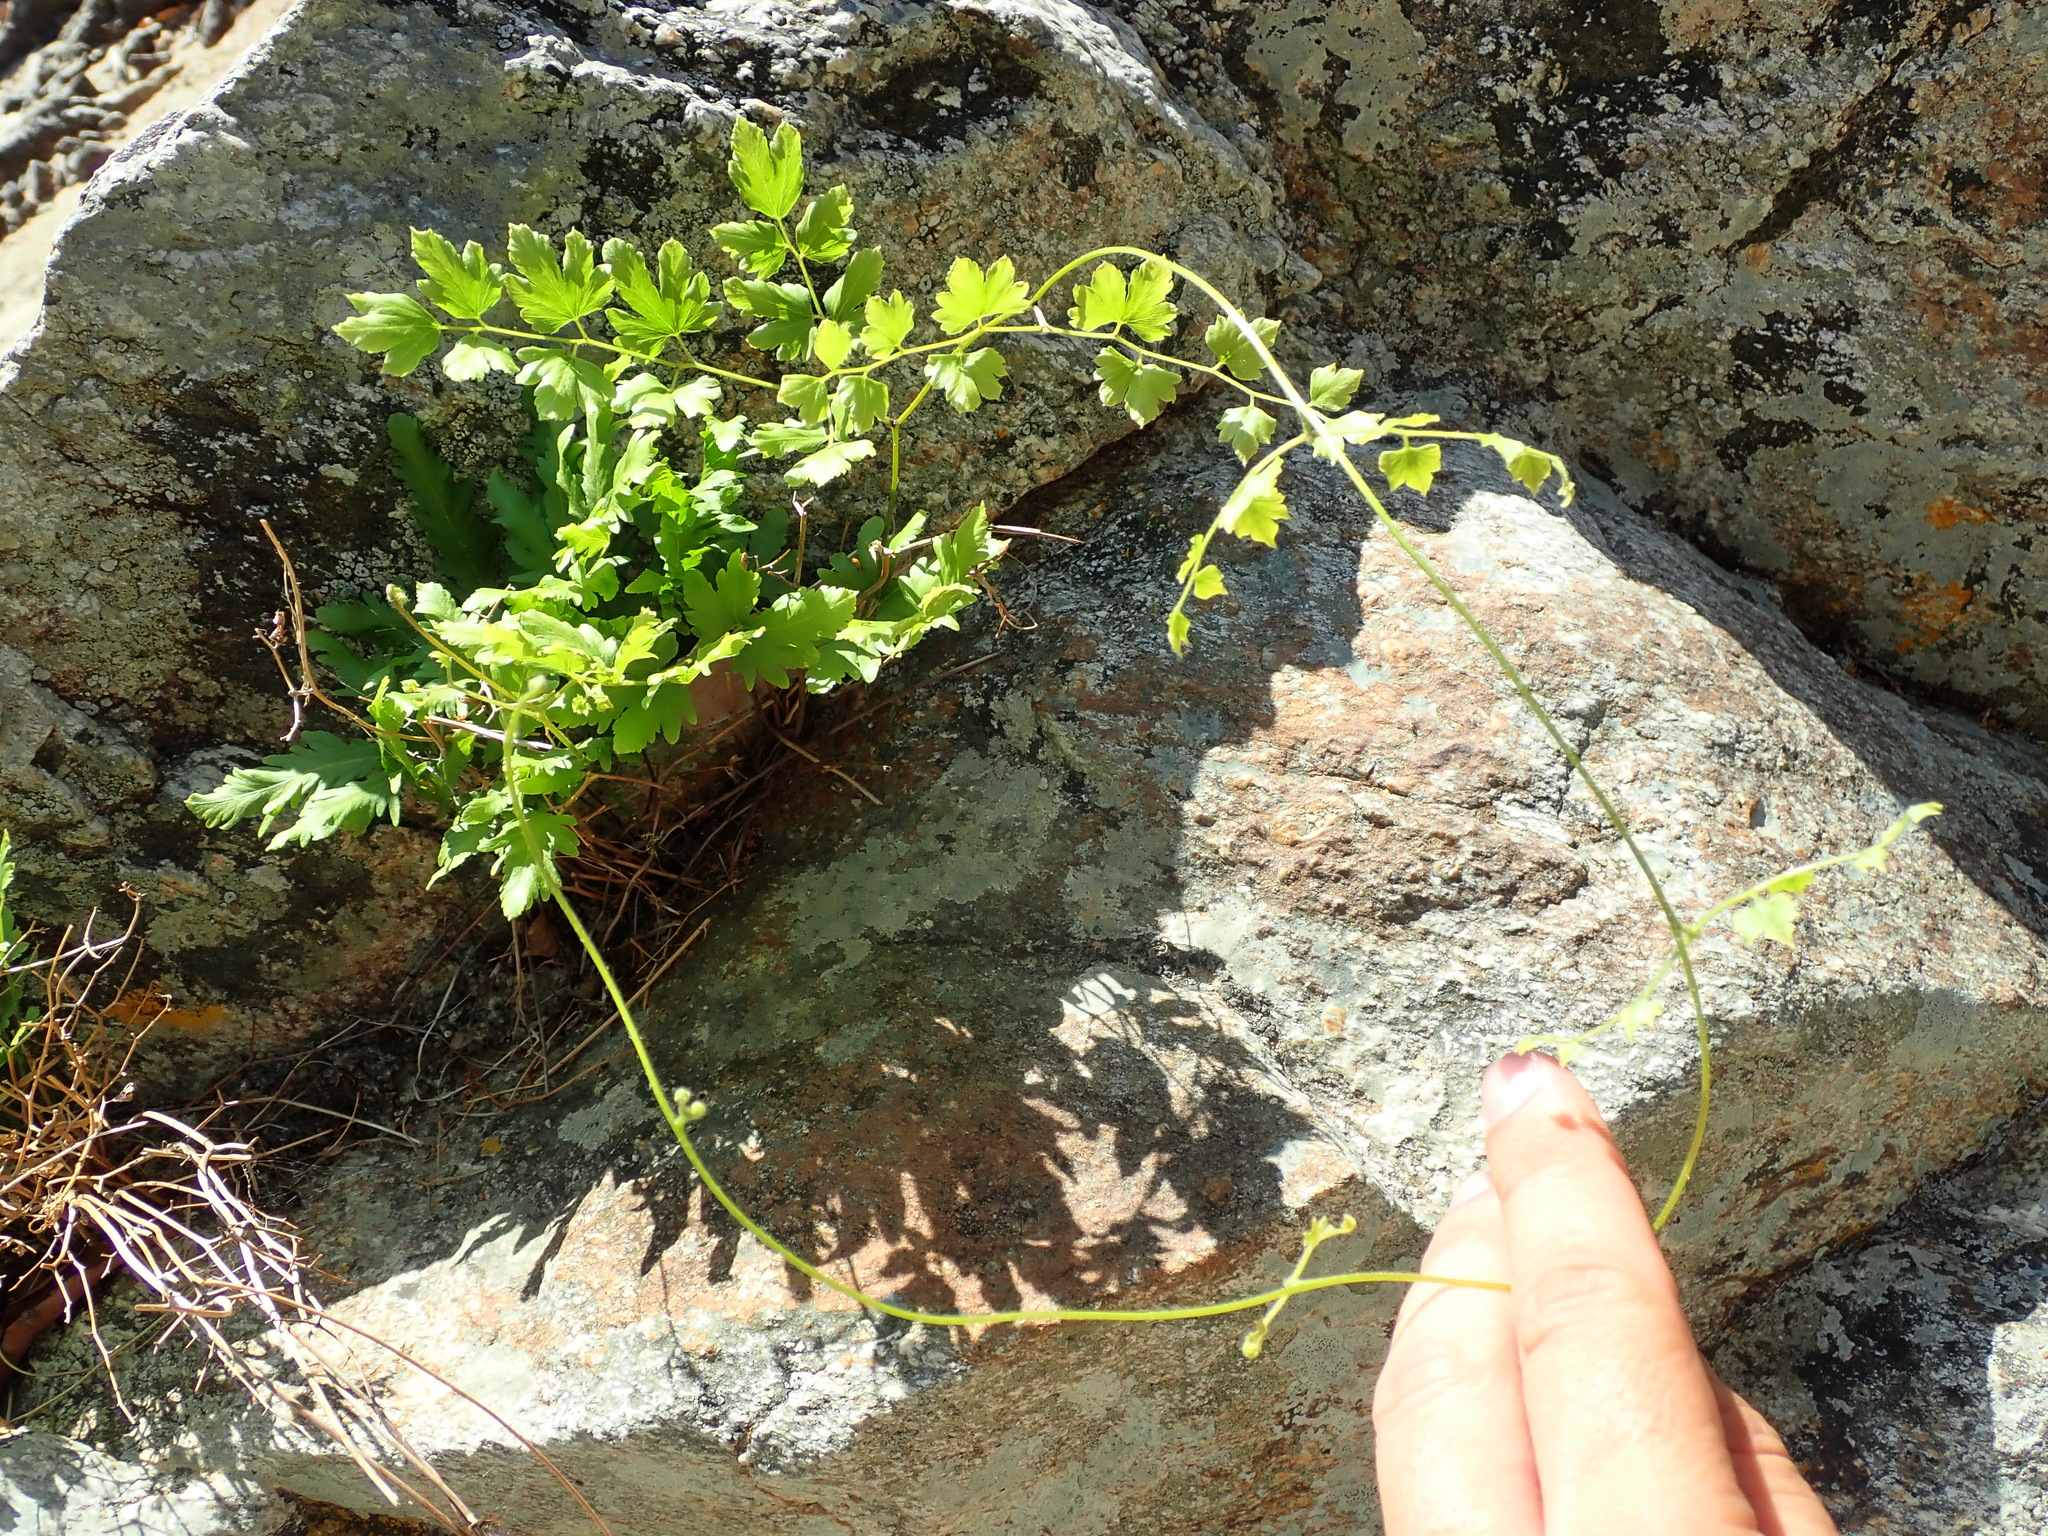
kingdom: Plantae
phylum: Tracheophyta
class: Polypodiopsida
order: Schizaeales
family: Lygodiaceae
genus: Lygodium
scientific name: Lygodium venustum
